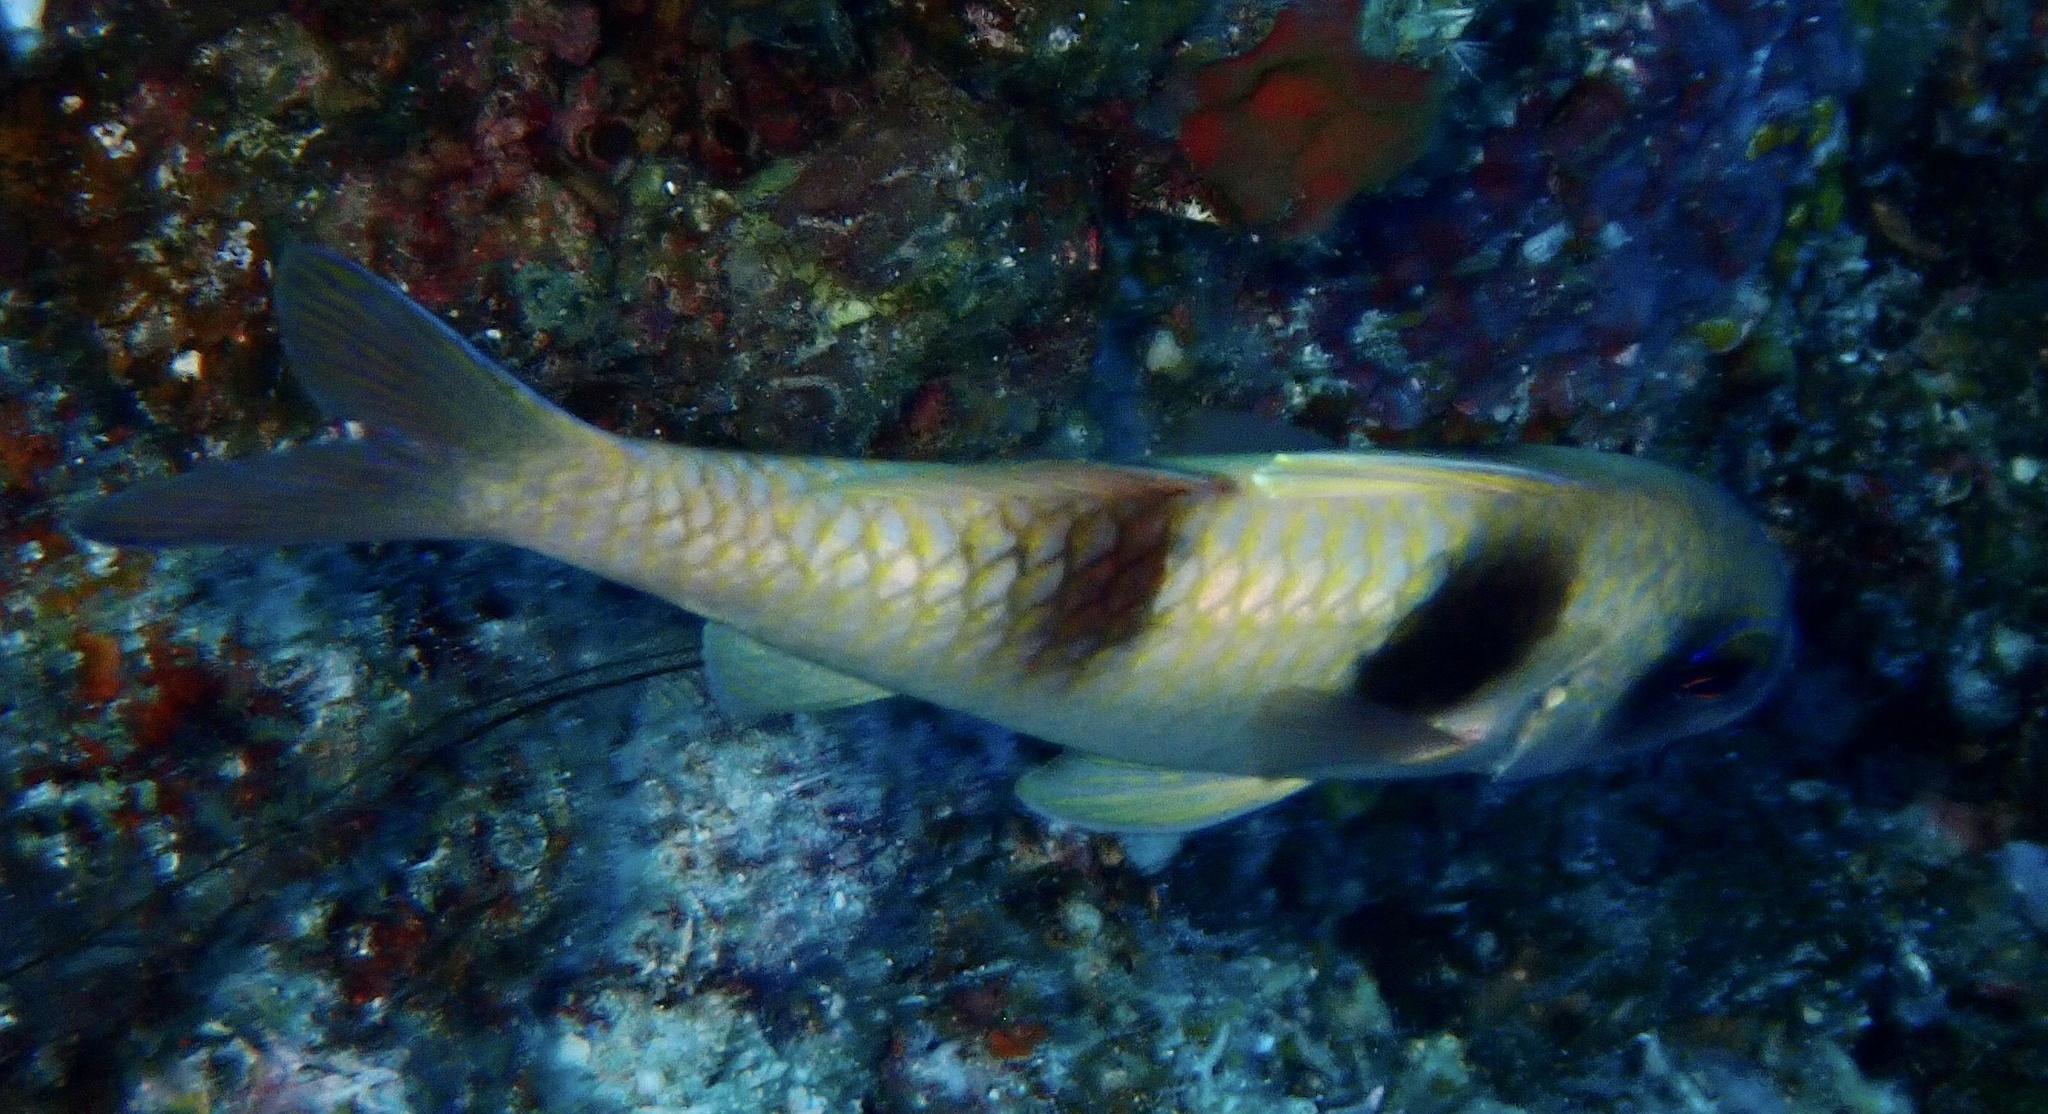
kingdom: Animalia
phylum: Chordata
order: Perciformes
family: Mullidae
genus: Parupeneus
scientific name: Parupeneus crassilabris
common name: Doublebar goatfish
